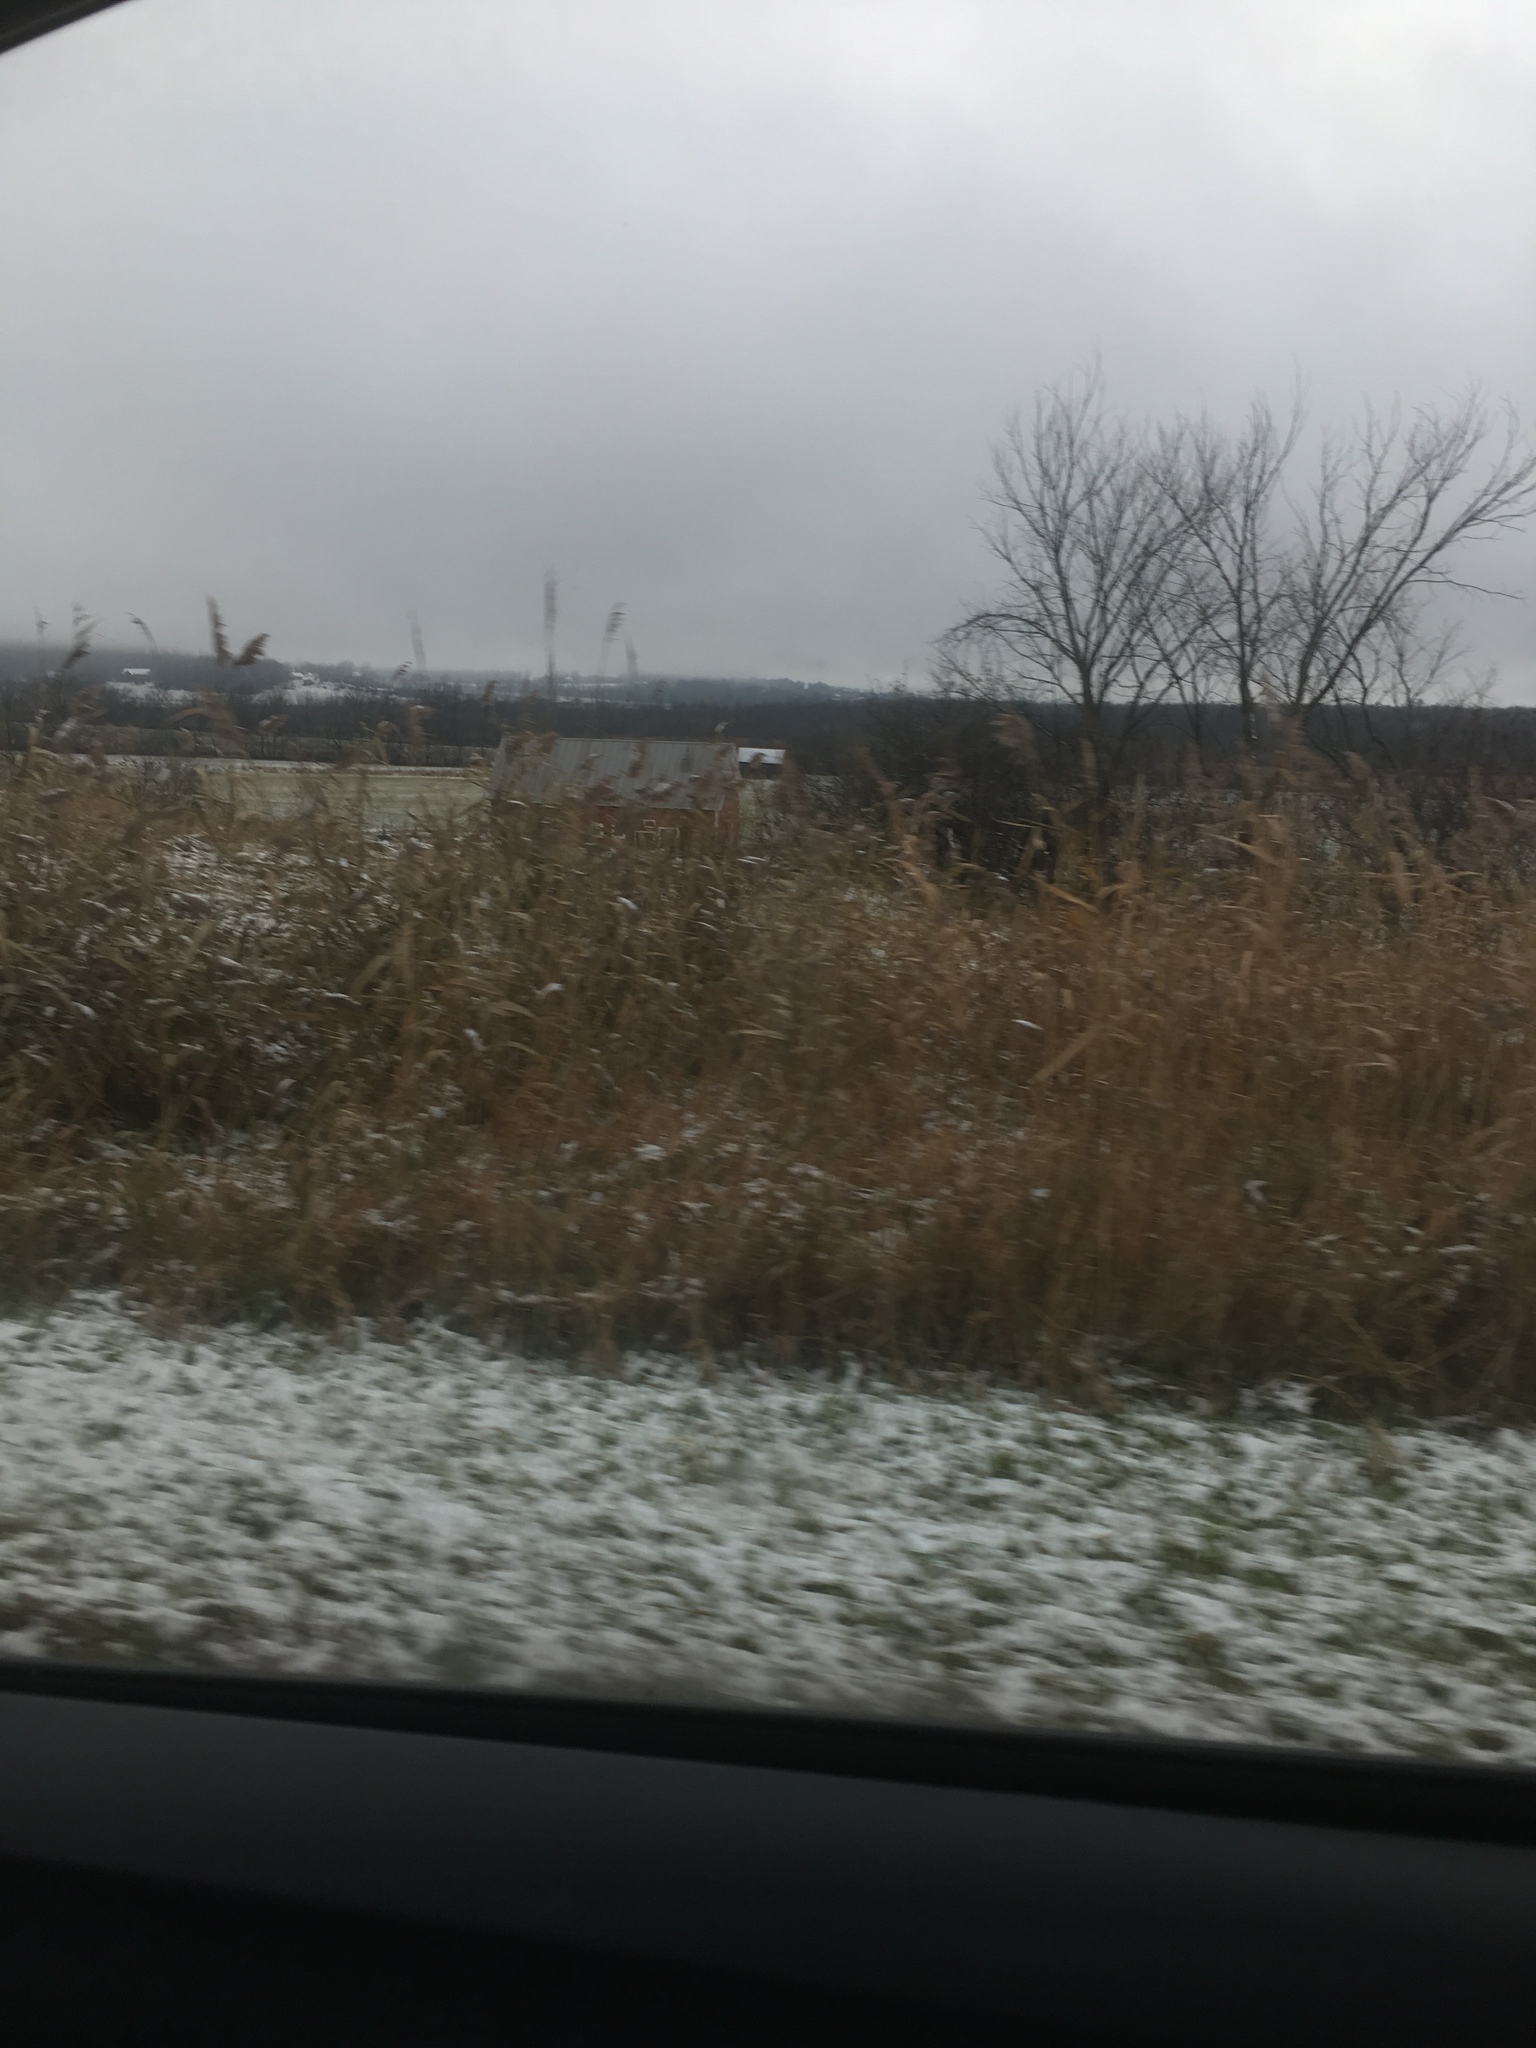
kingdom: Plantae
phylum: Tracheophyta
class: Liliopsida
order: Poales
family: Poaceae
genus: Phragmites
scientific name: Phragmites australis
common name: Common reed
